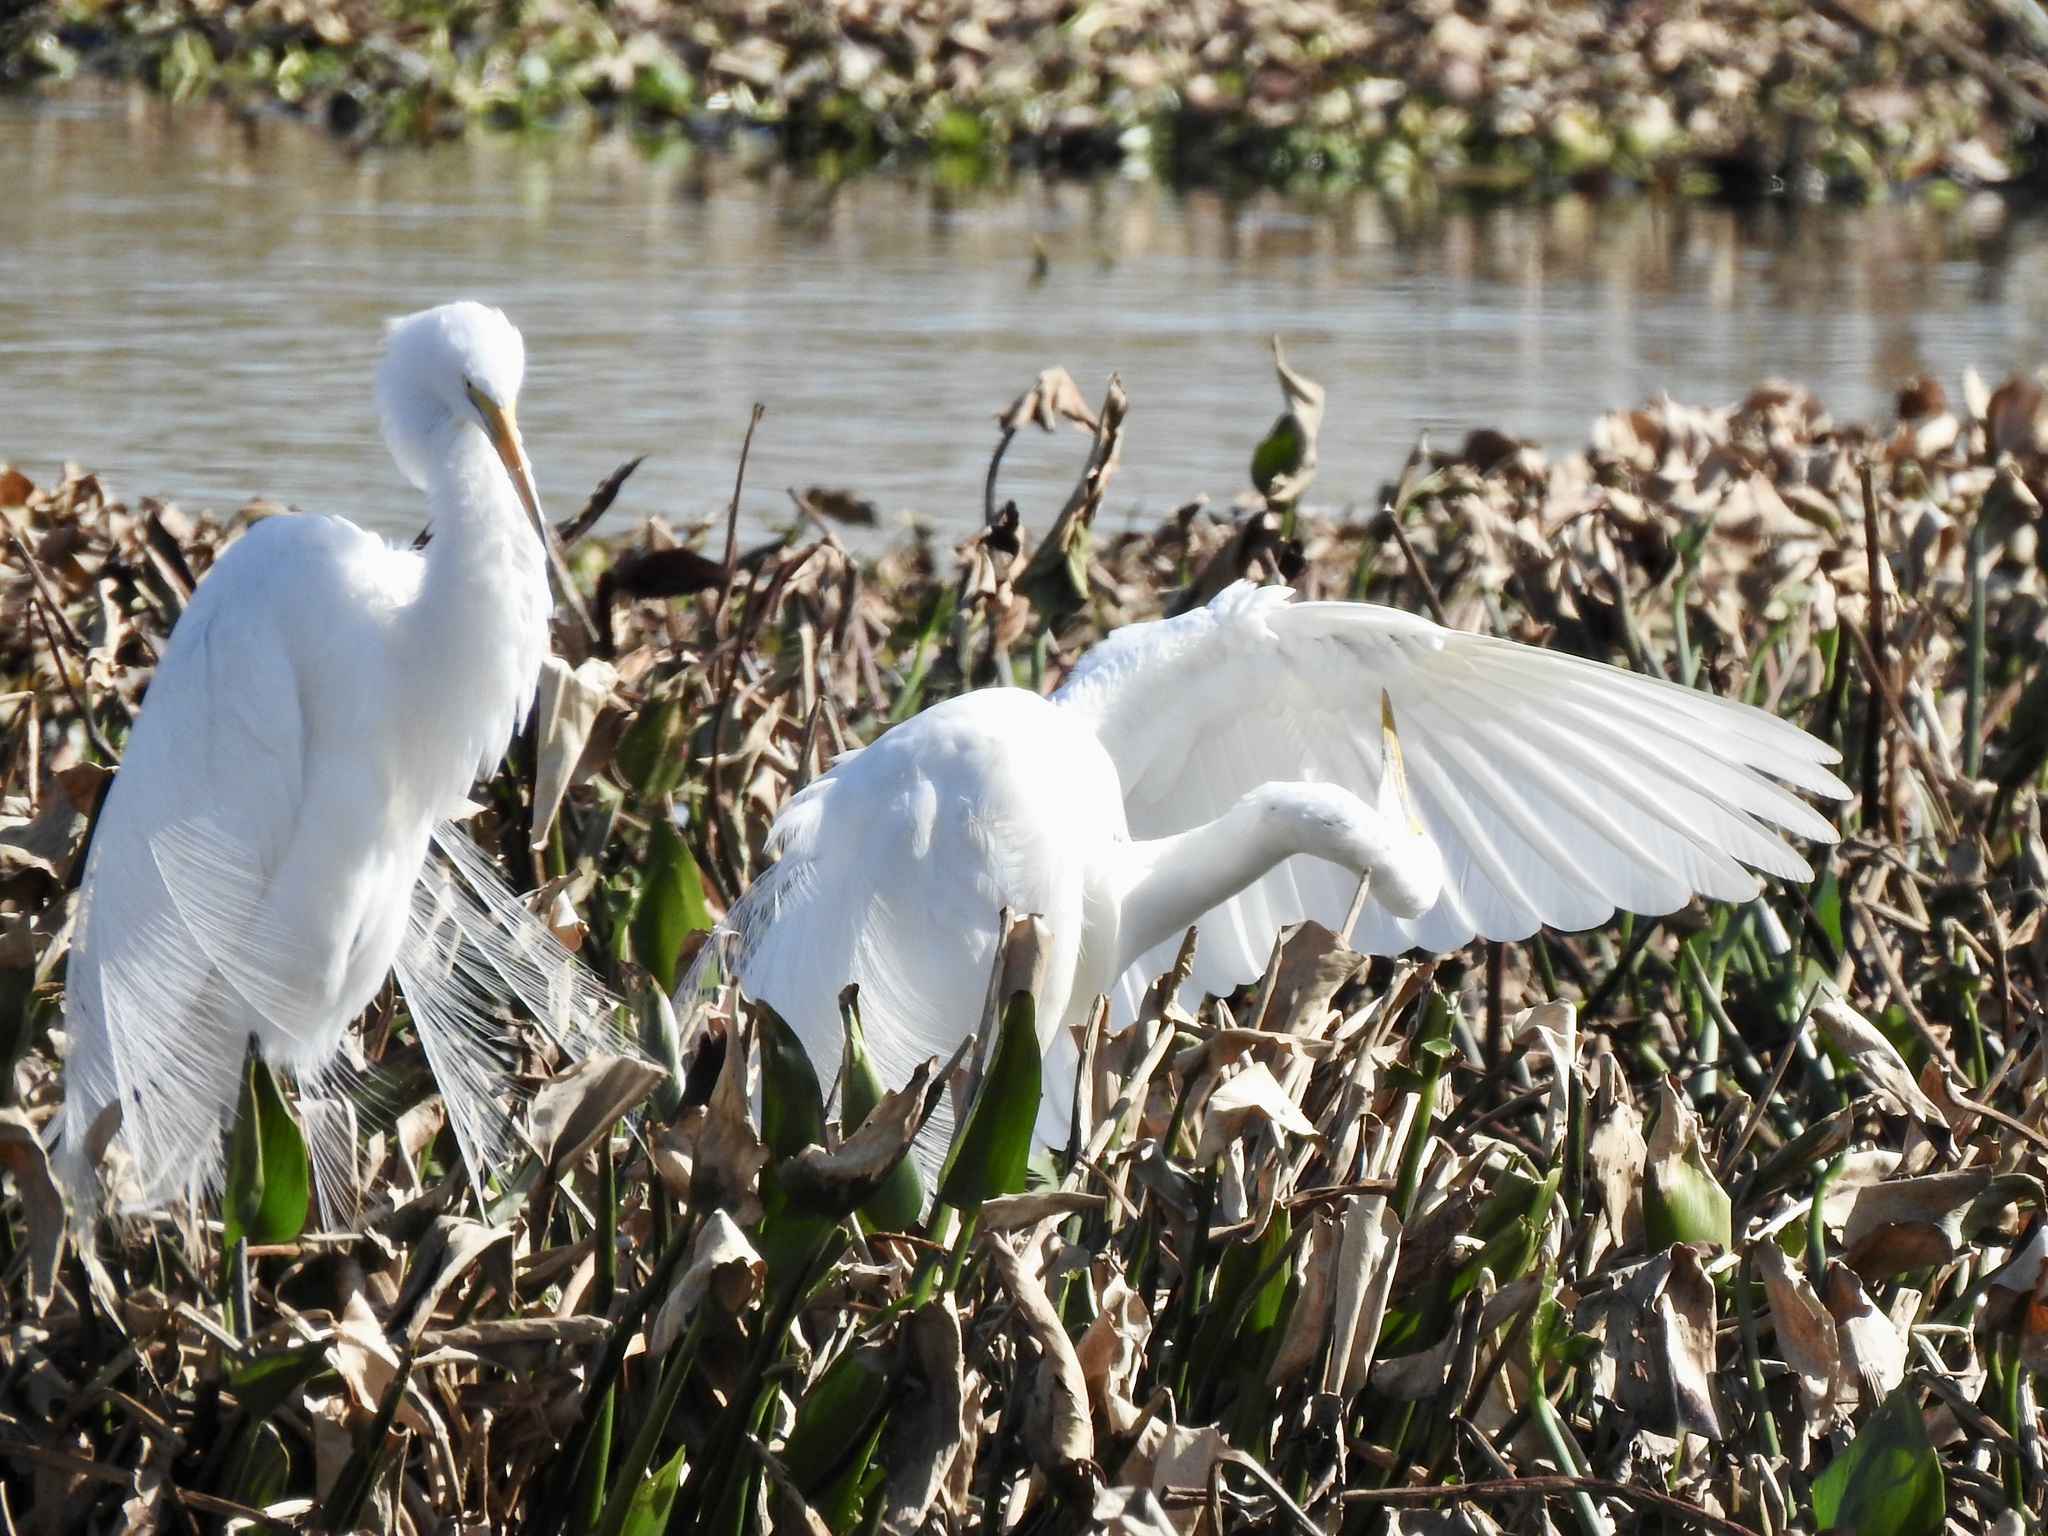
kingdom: Animalia
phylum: Chordata
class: Aves
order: Pelecaniformes
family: Ardeidae
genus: Ardea
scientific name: Ardea alba
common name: Great egret
